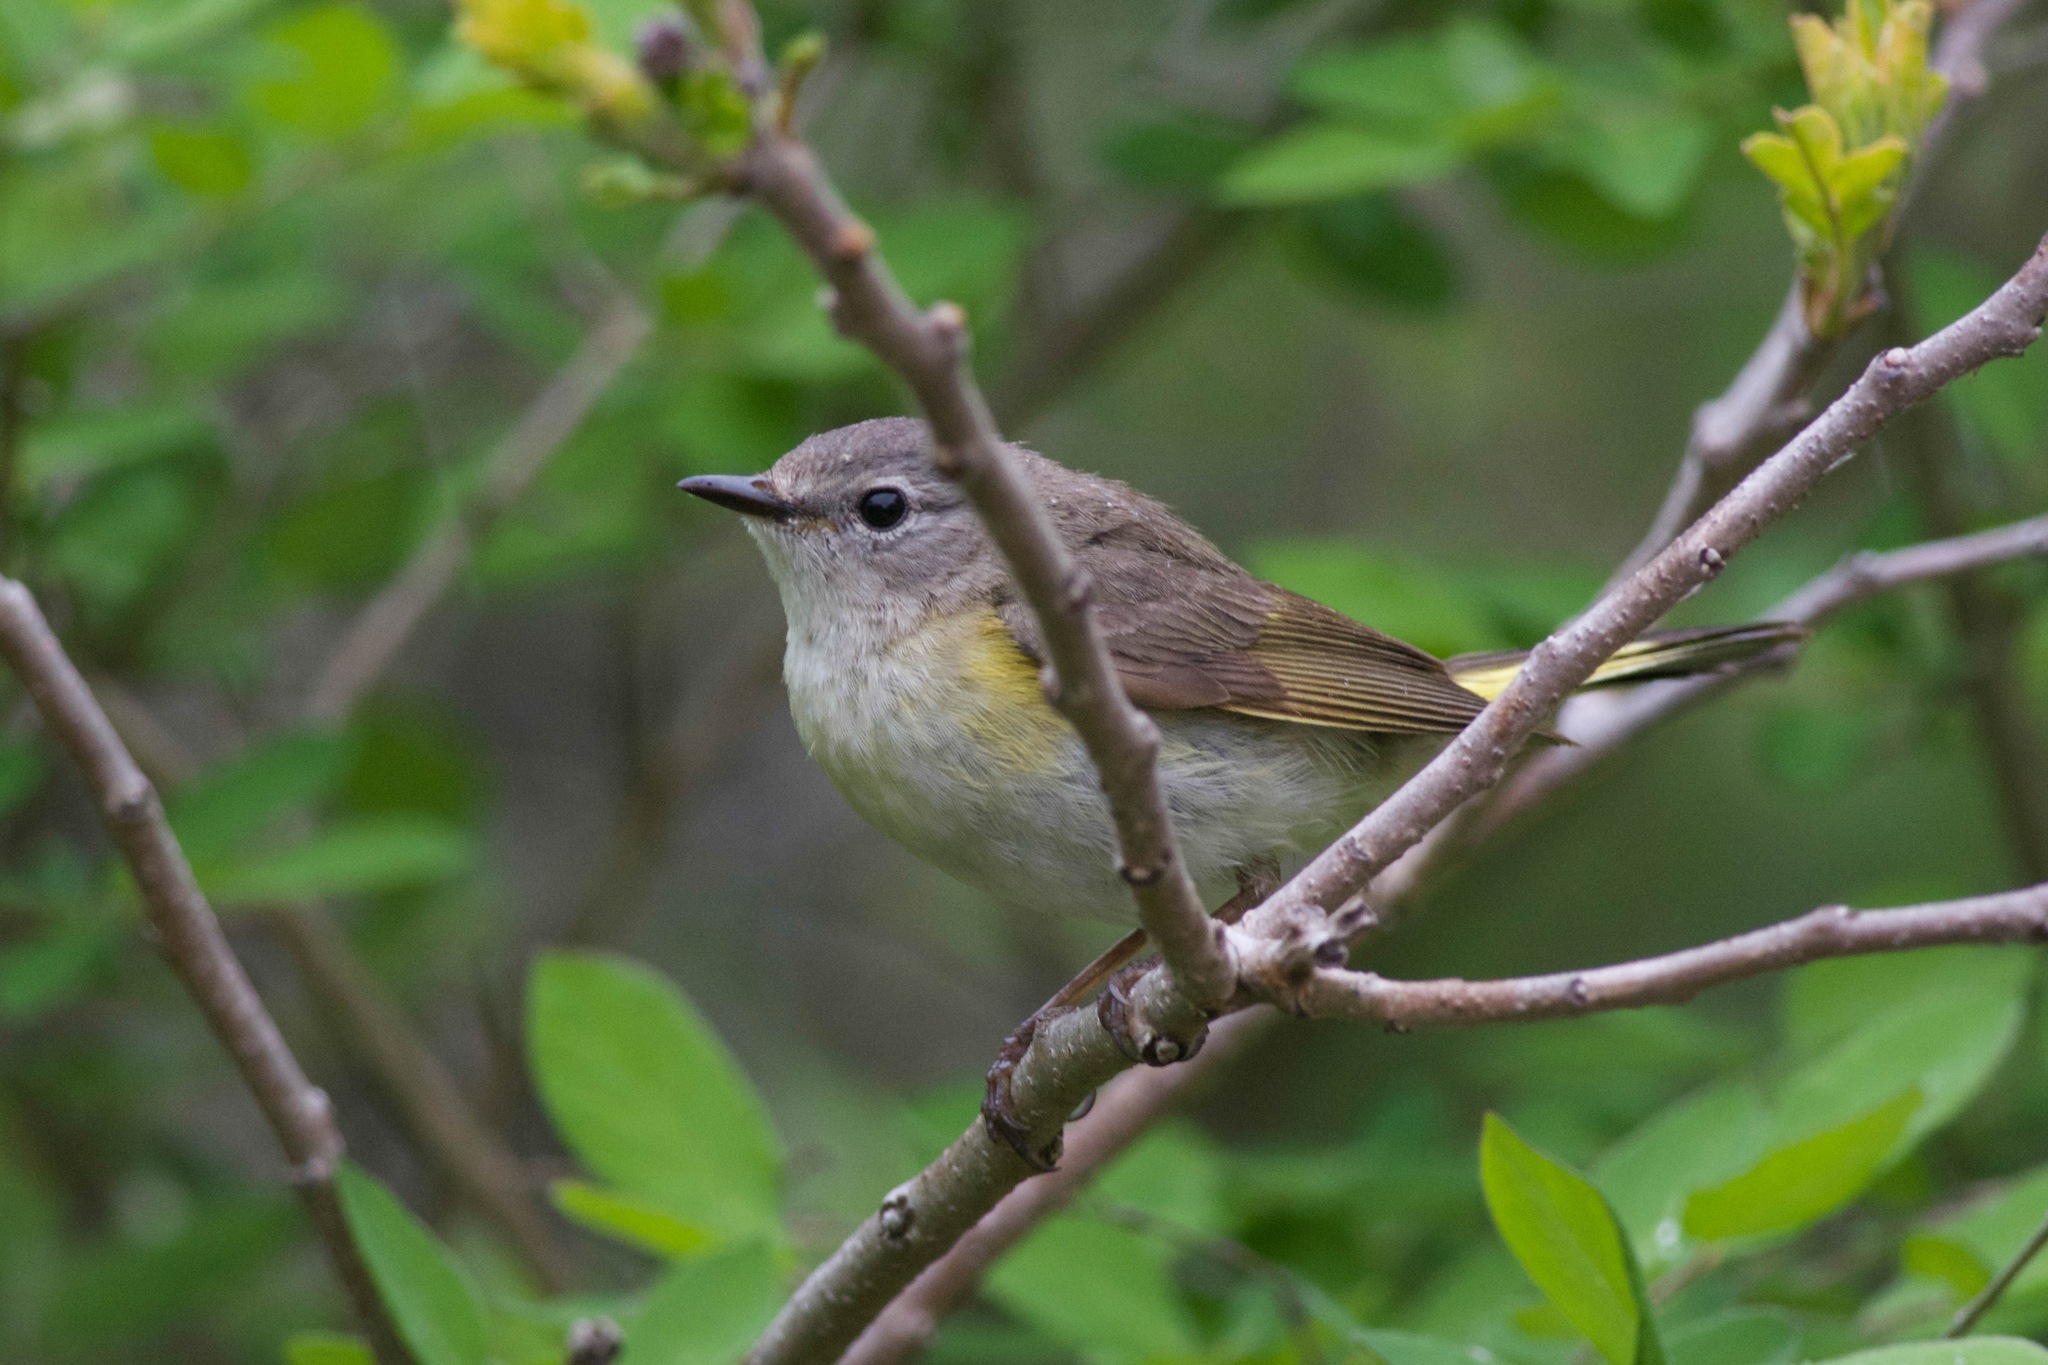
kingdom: Animalia
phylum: Chordata
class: Aves
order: Passeriformes
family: Parulidae
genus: Setophaga
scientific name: Setophaga ruticilla
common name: American redstart
